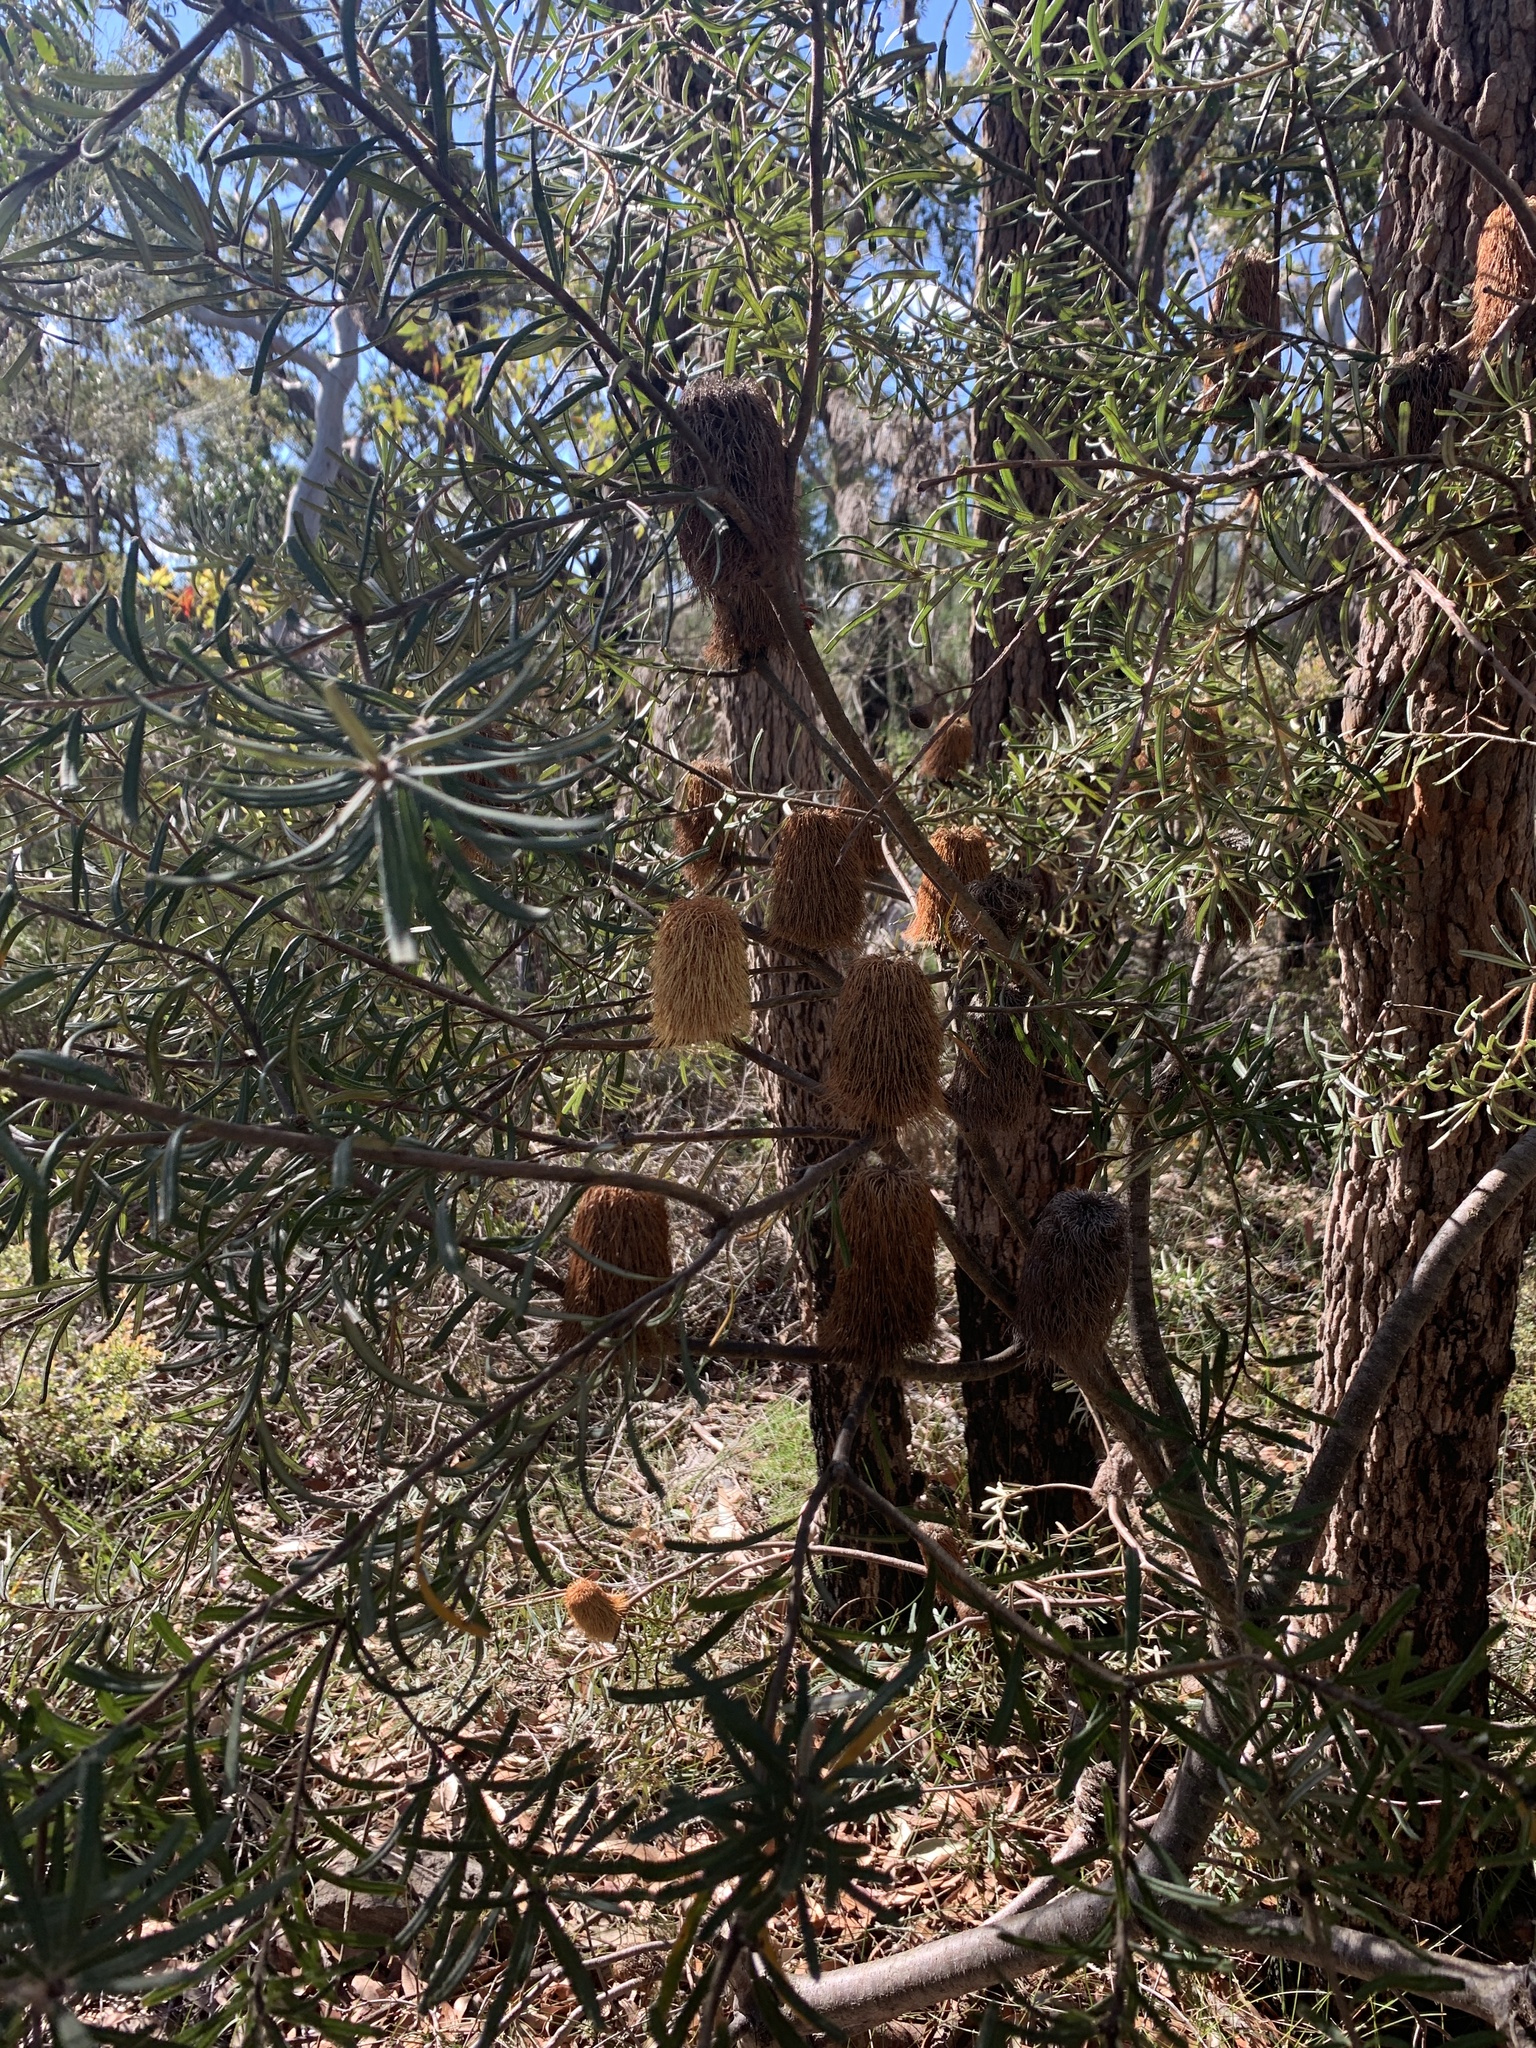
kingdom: Plantae
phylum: Tracheophyta
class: Magnoliopsida
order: Proteales
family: Proteaceae
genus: Banksia
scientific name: Banksia marginata
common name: Silver banksia
